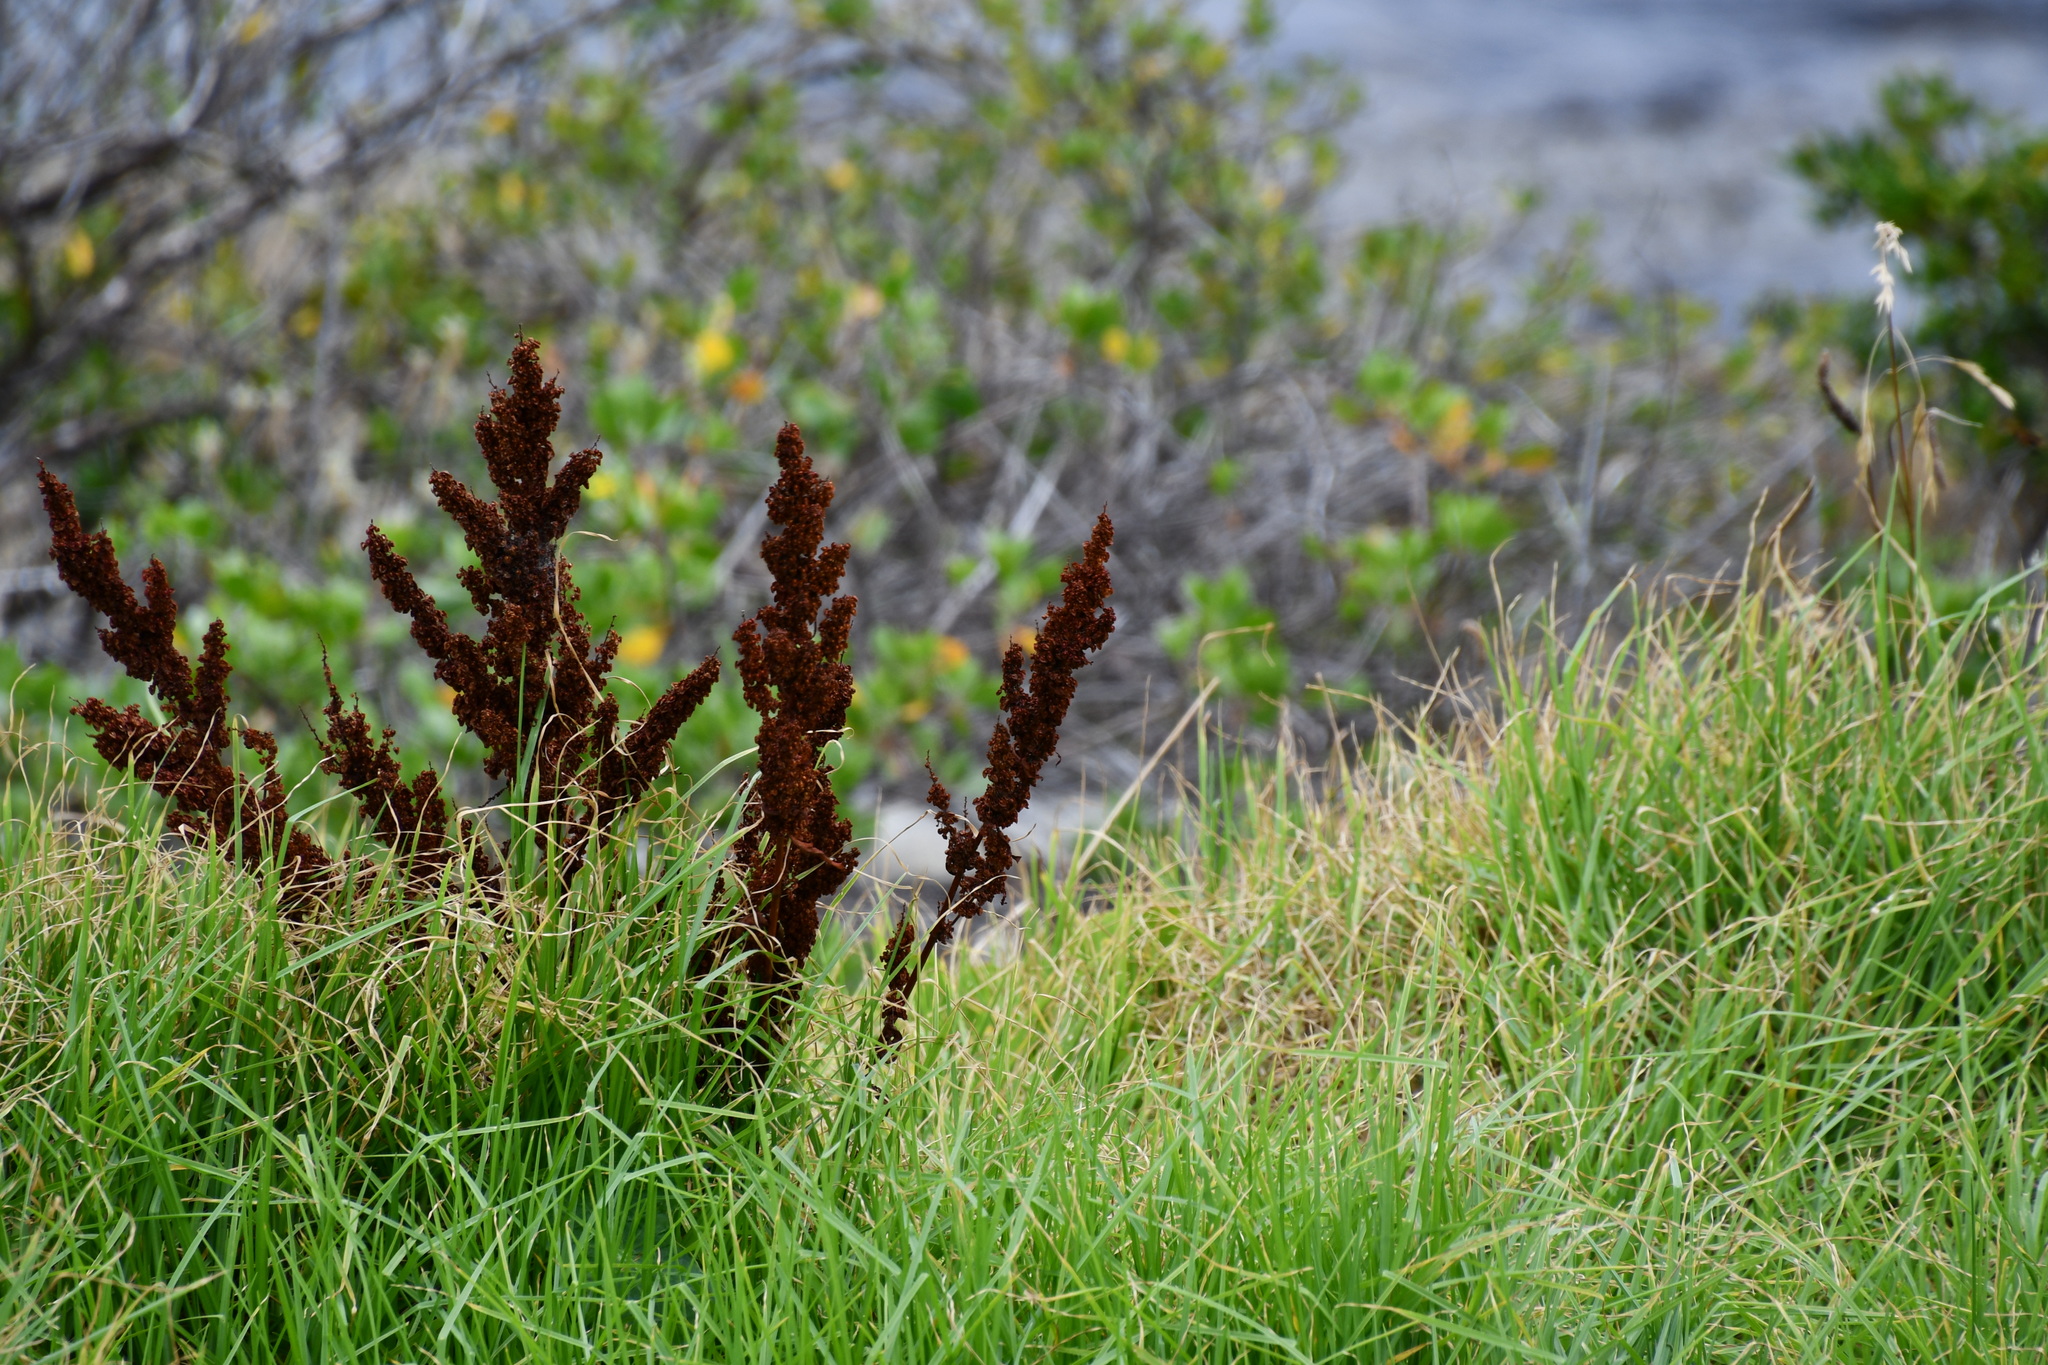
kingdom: Plantae
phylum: Tracheophyta
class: Magnoliopsida
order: Caryophyllales
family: Polygonaceae
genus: Rumex
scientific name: Rumex crispus
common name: Curled dock
